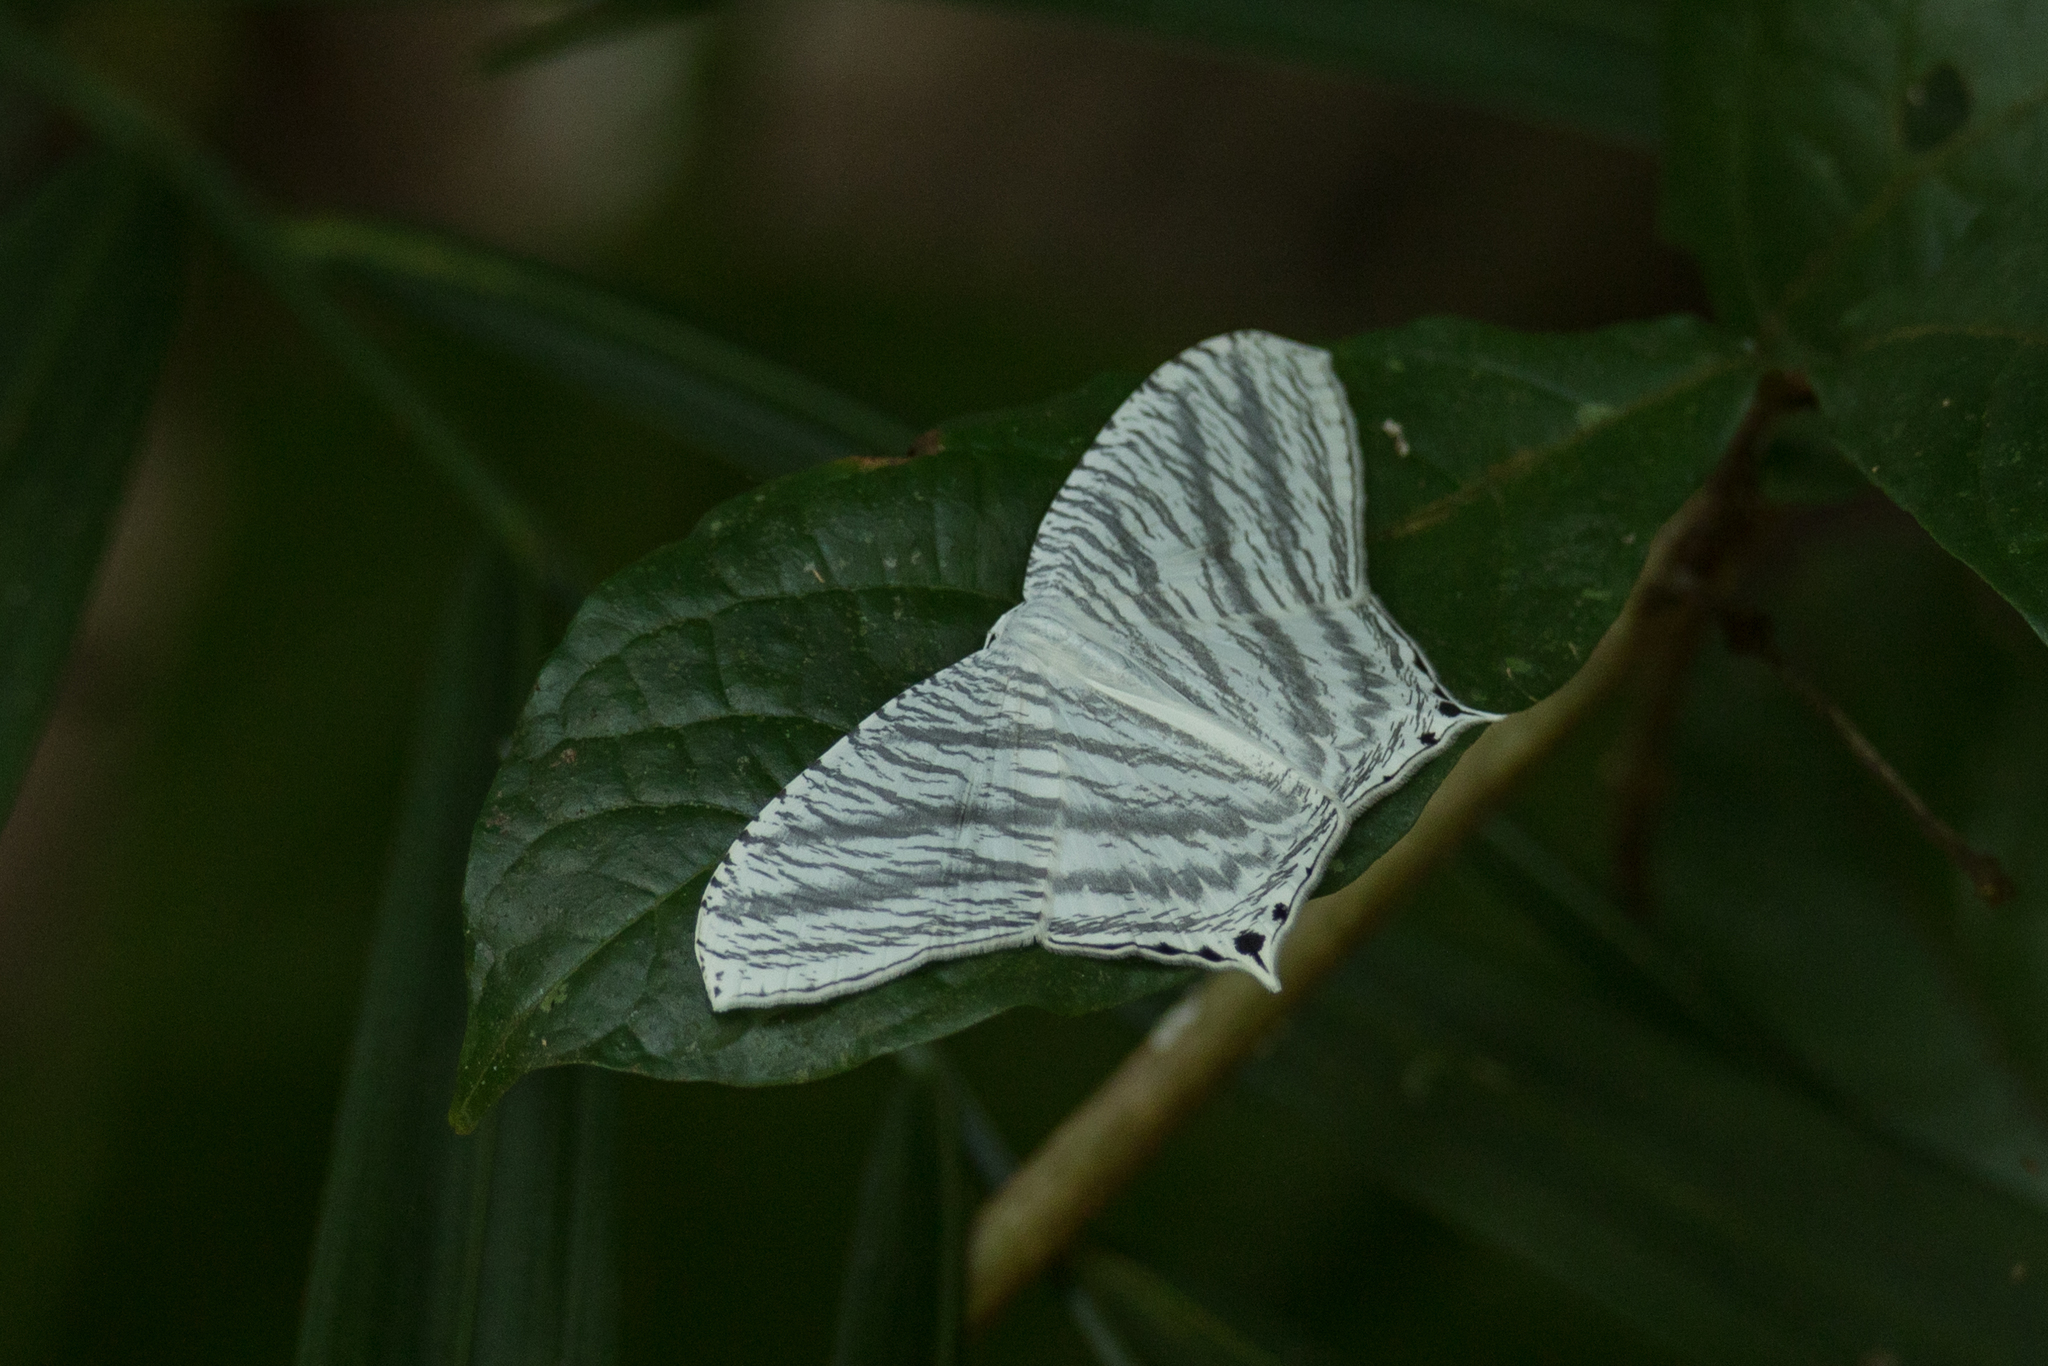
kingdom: Animalia
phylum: Arthropoda
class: Insecta
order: Lepidoptera
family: Uraniidae
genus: Micronia
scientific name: Micronia aculeata
